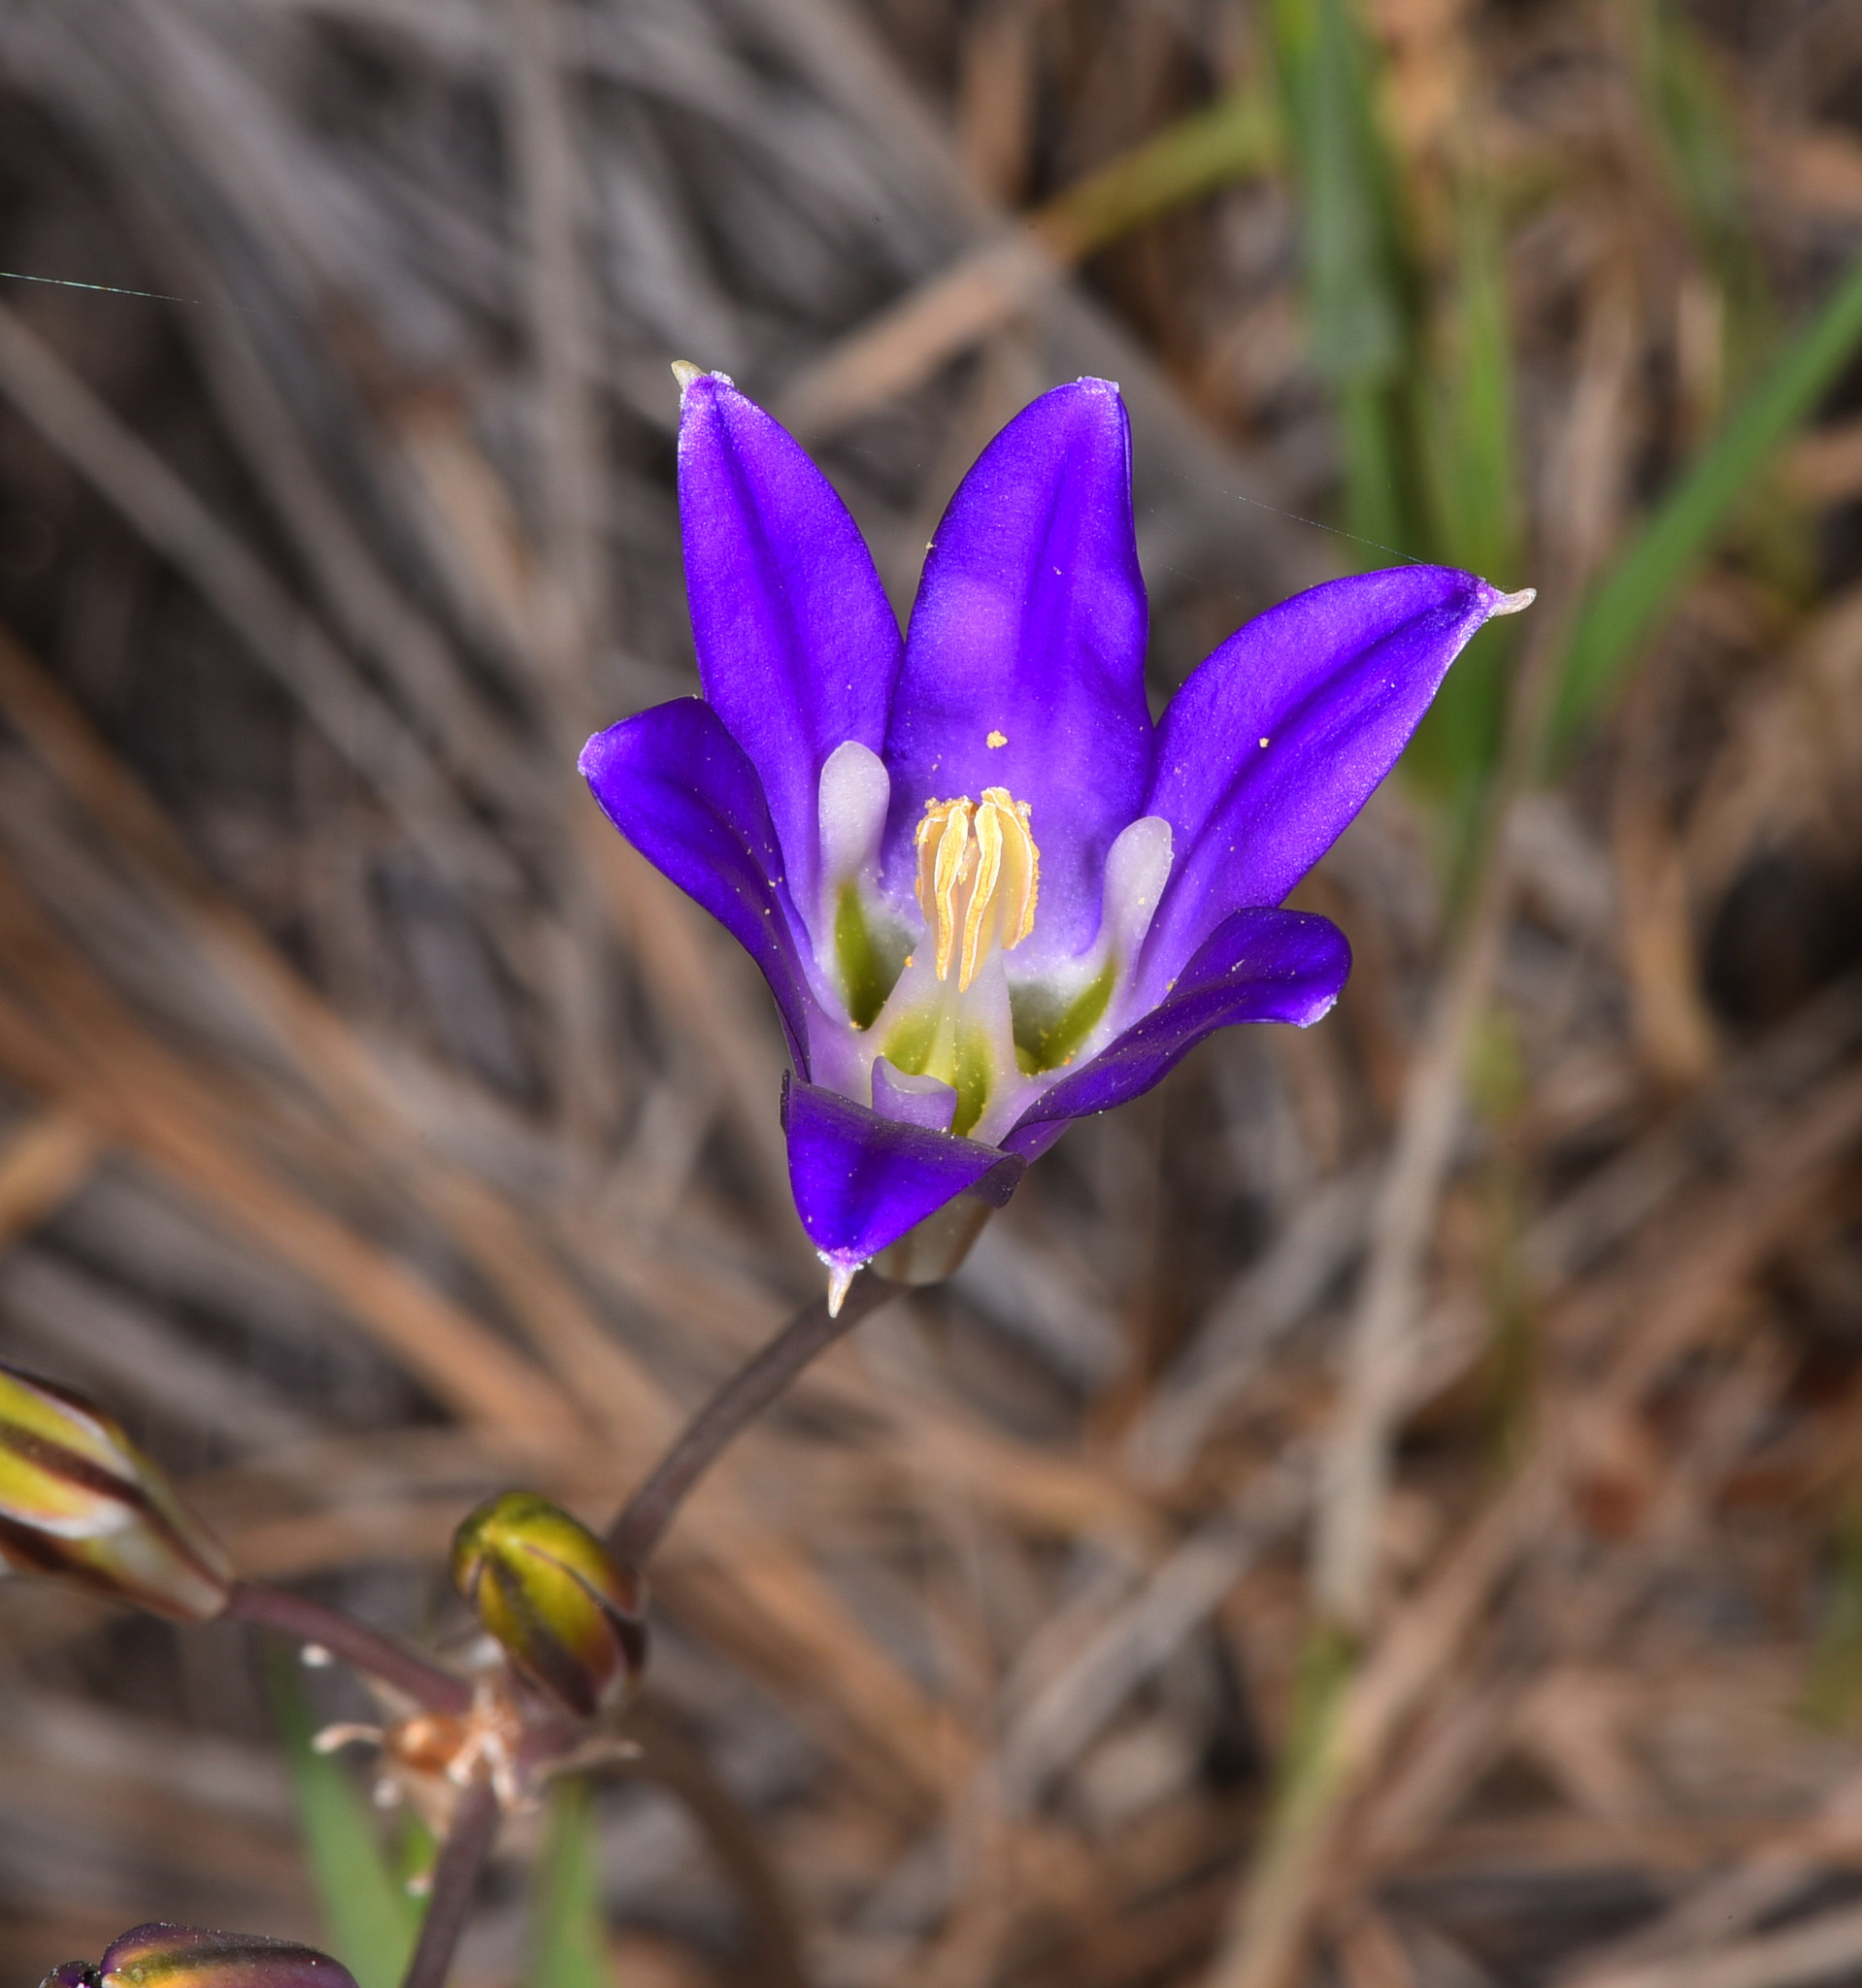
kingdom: Plantae
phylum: Tracheophyta
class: Liliopsida
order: Asparagales
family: Asparagaceae
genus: Brodiaea
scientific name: Brodiaea elegans
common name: Elegant cluster-lily
